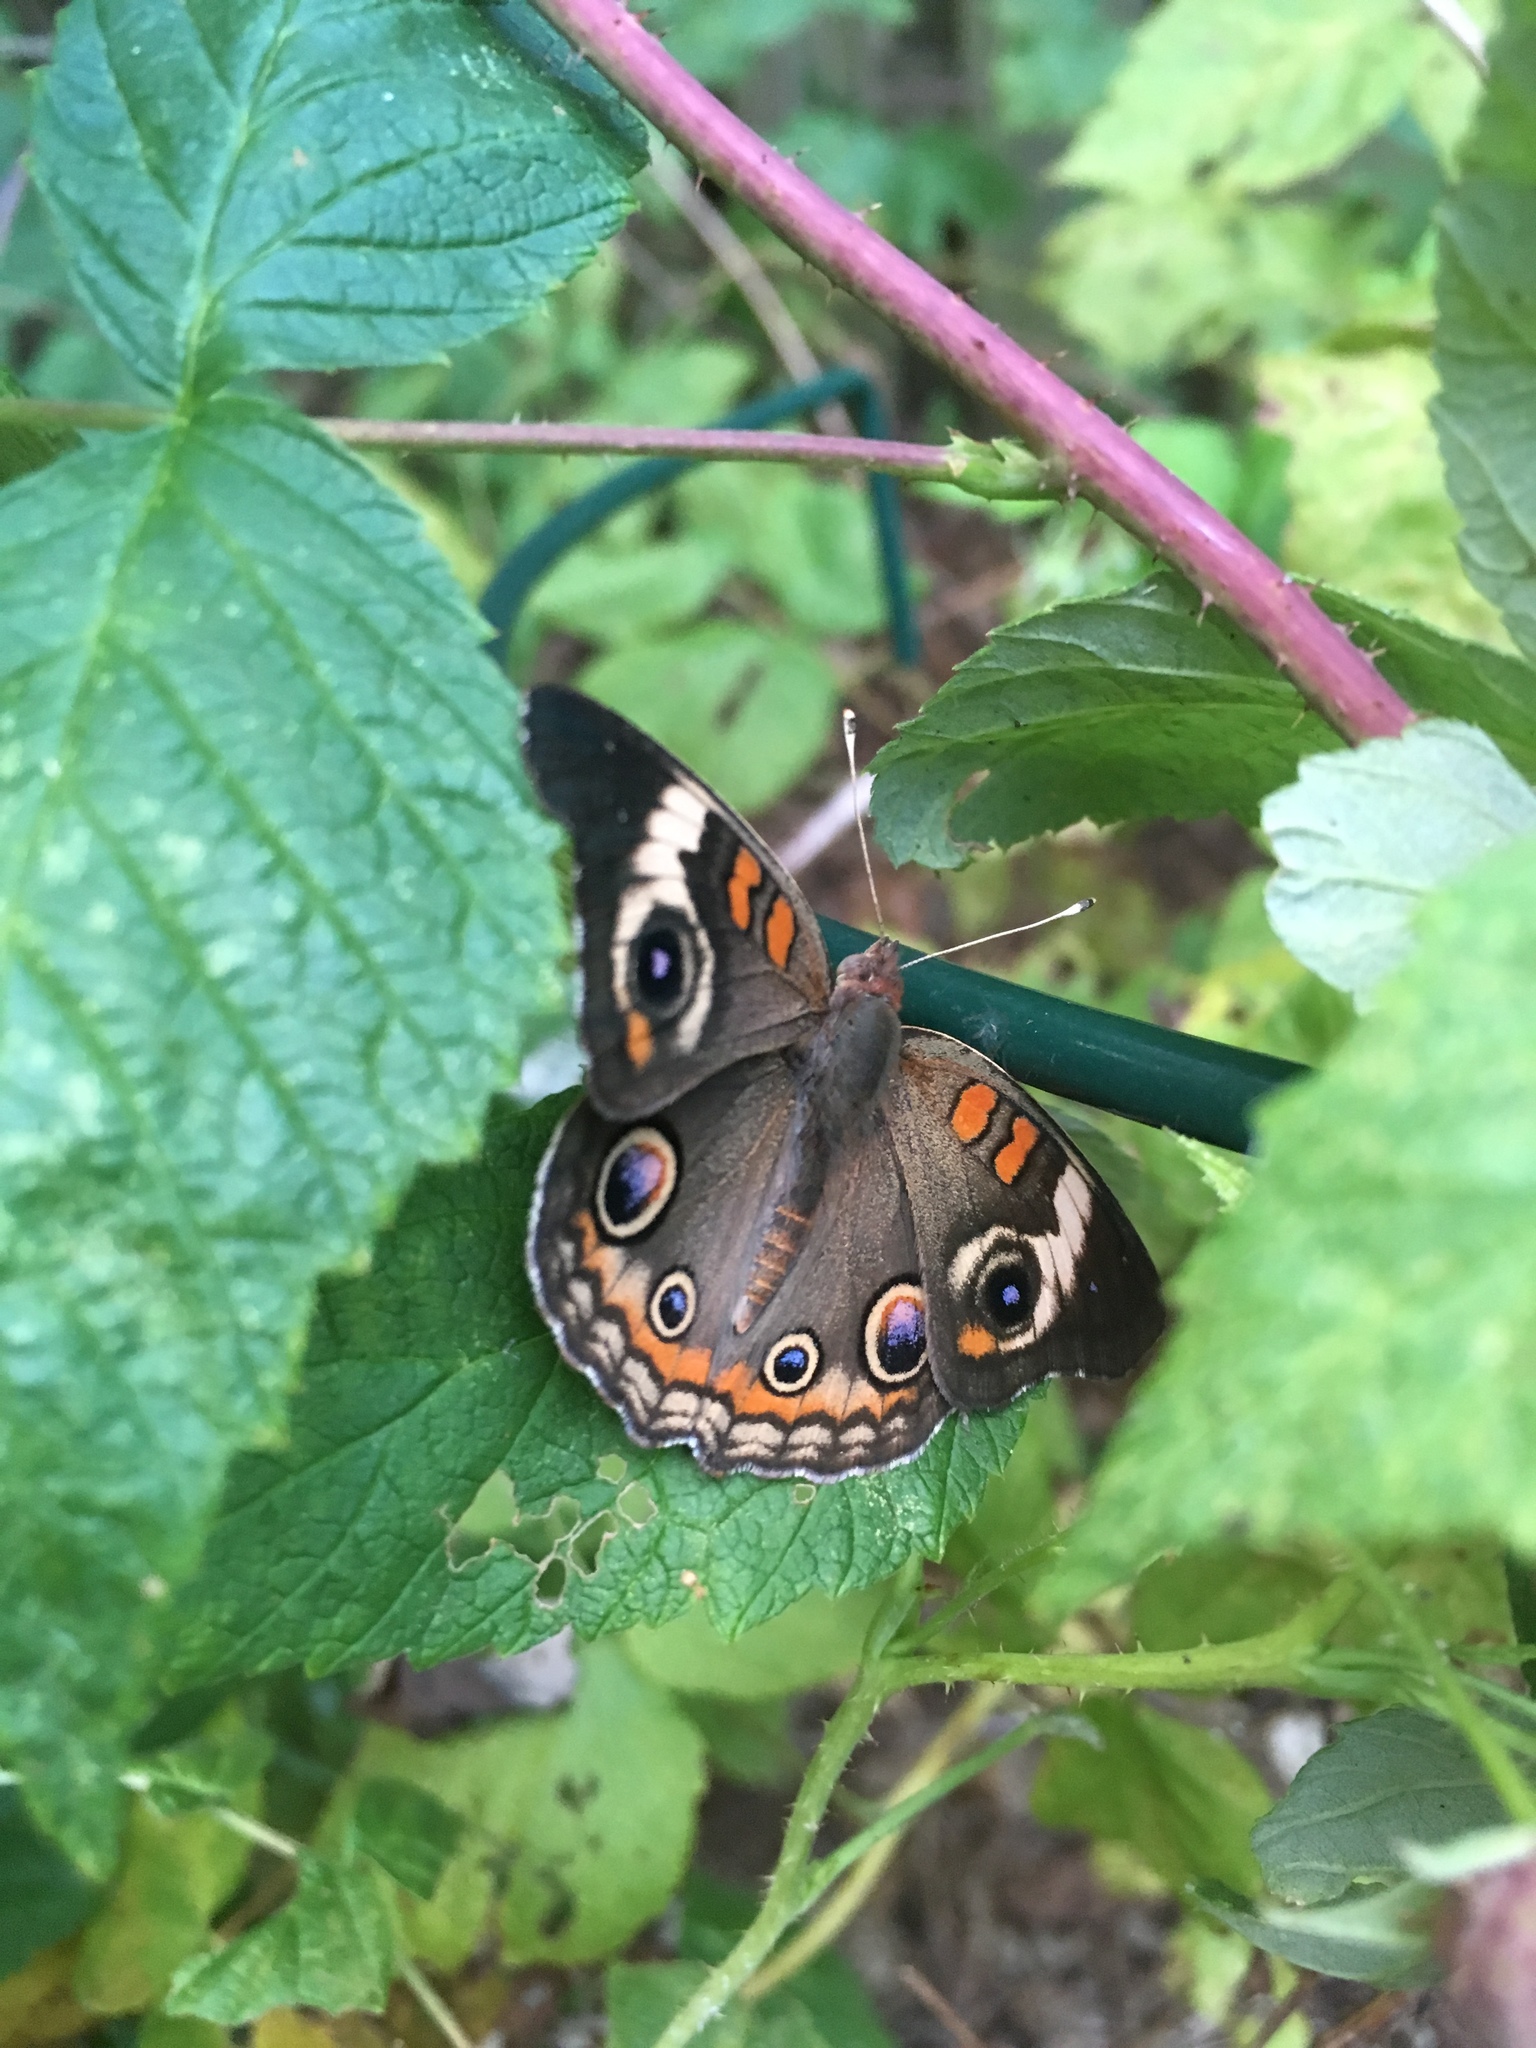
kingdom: Animalia
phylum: Arthropoda
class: Insecta
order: Lepidoptera
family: Nymphalidae
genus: Junonia
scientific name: Junonia coenia
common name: Common buckeye
